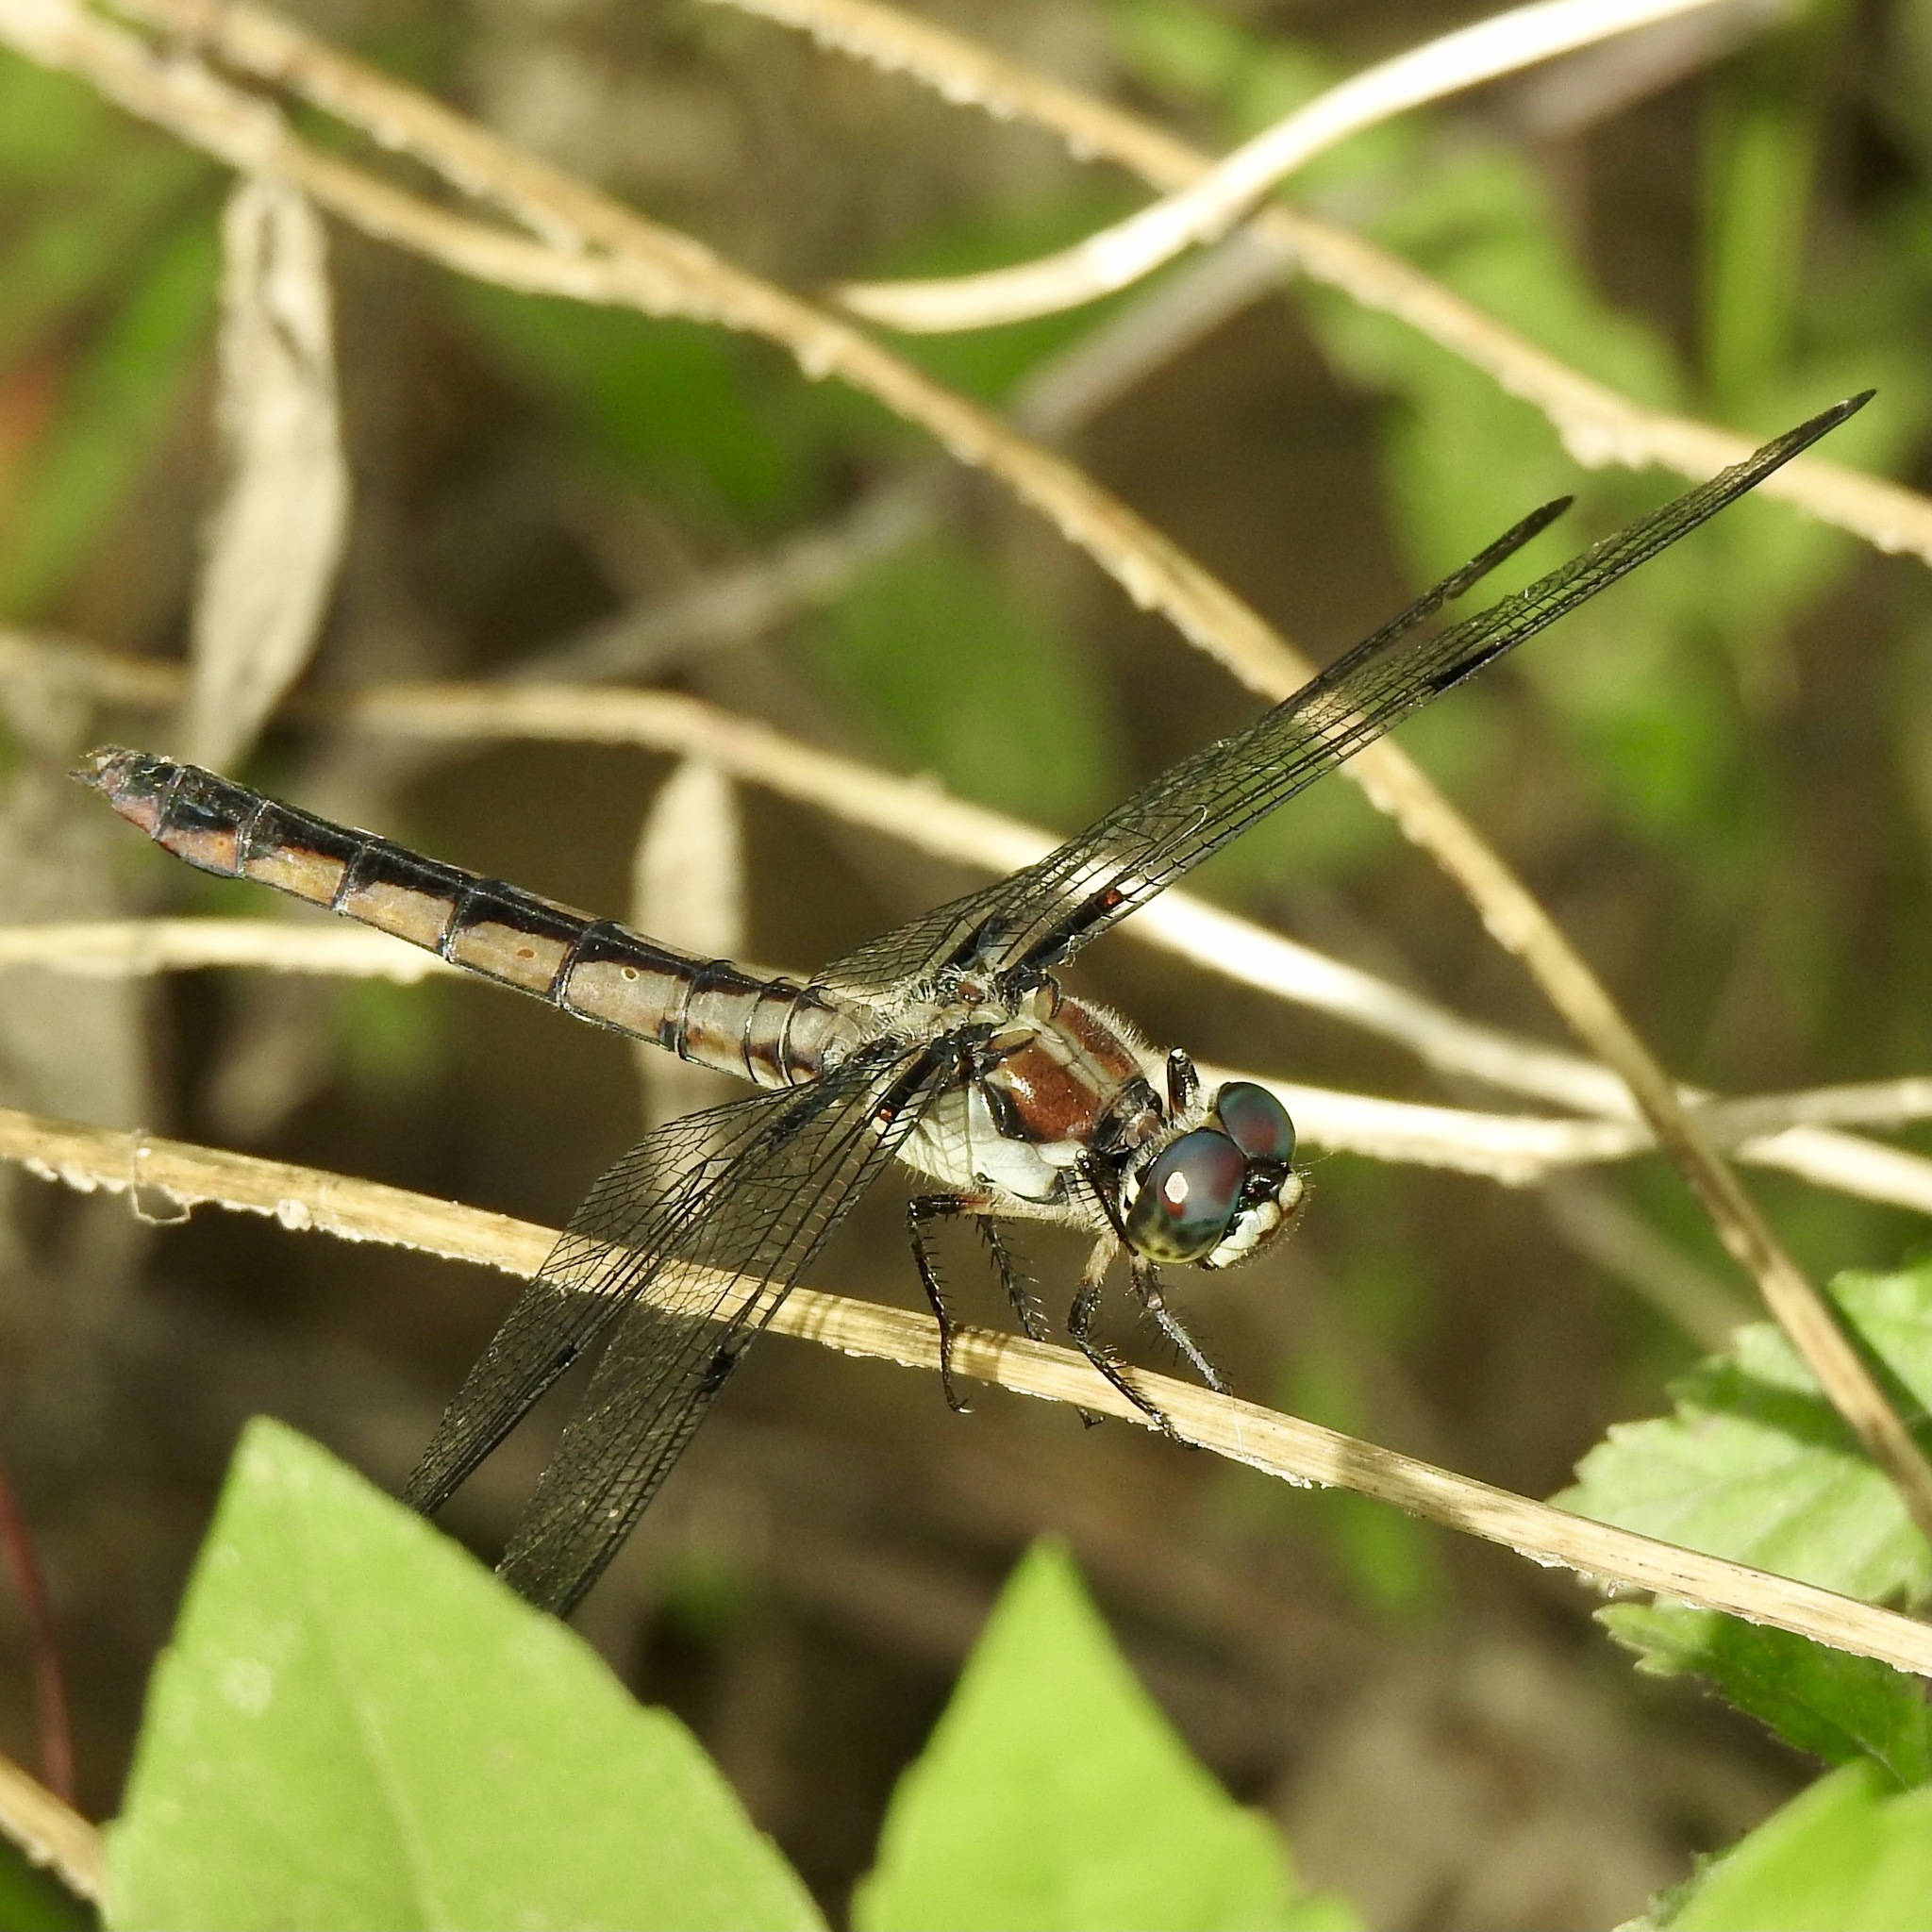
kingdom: Animalia
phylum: Arthropoda
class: Insecta
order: Odonata
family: Libellulidae
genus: Libellula
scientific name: Libellula vibrans
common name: Great blue skimmer
